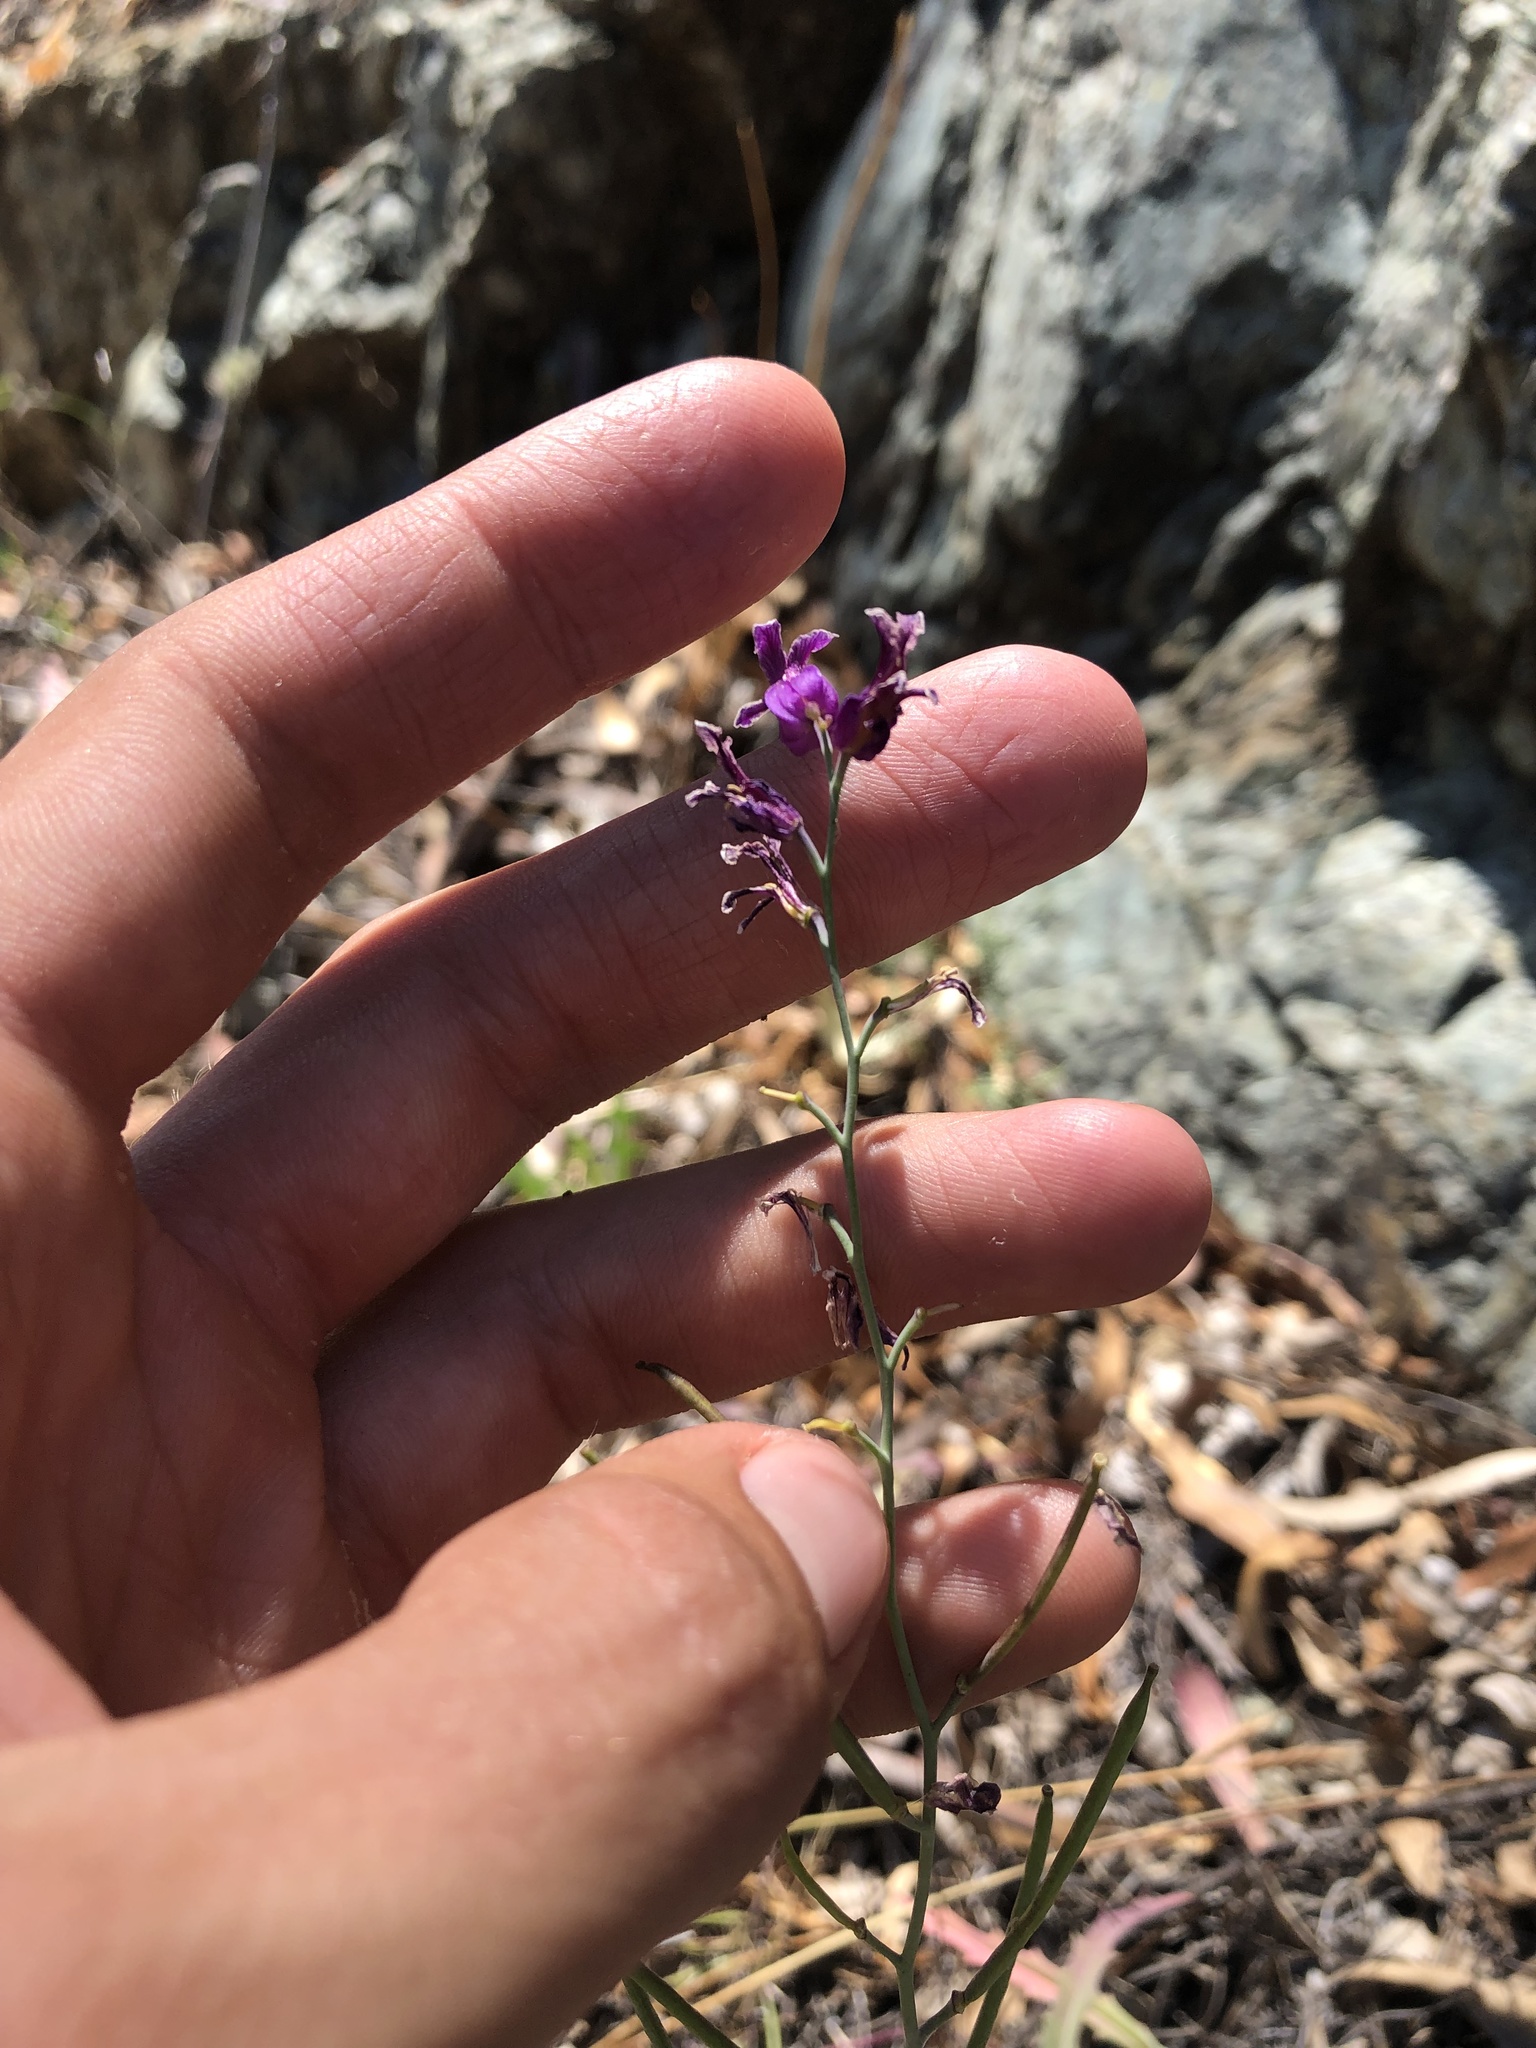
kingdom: Plantae
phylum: Tracheophyta
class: Magnoliopsida
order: Brassicales
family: Brassicaceae
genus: Streptanthus
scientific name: Streptanthus glandulosus
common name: Jewel-flower
